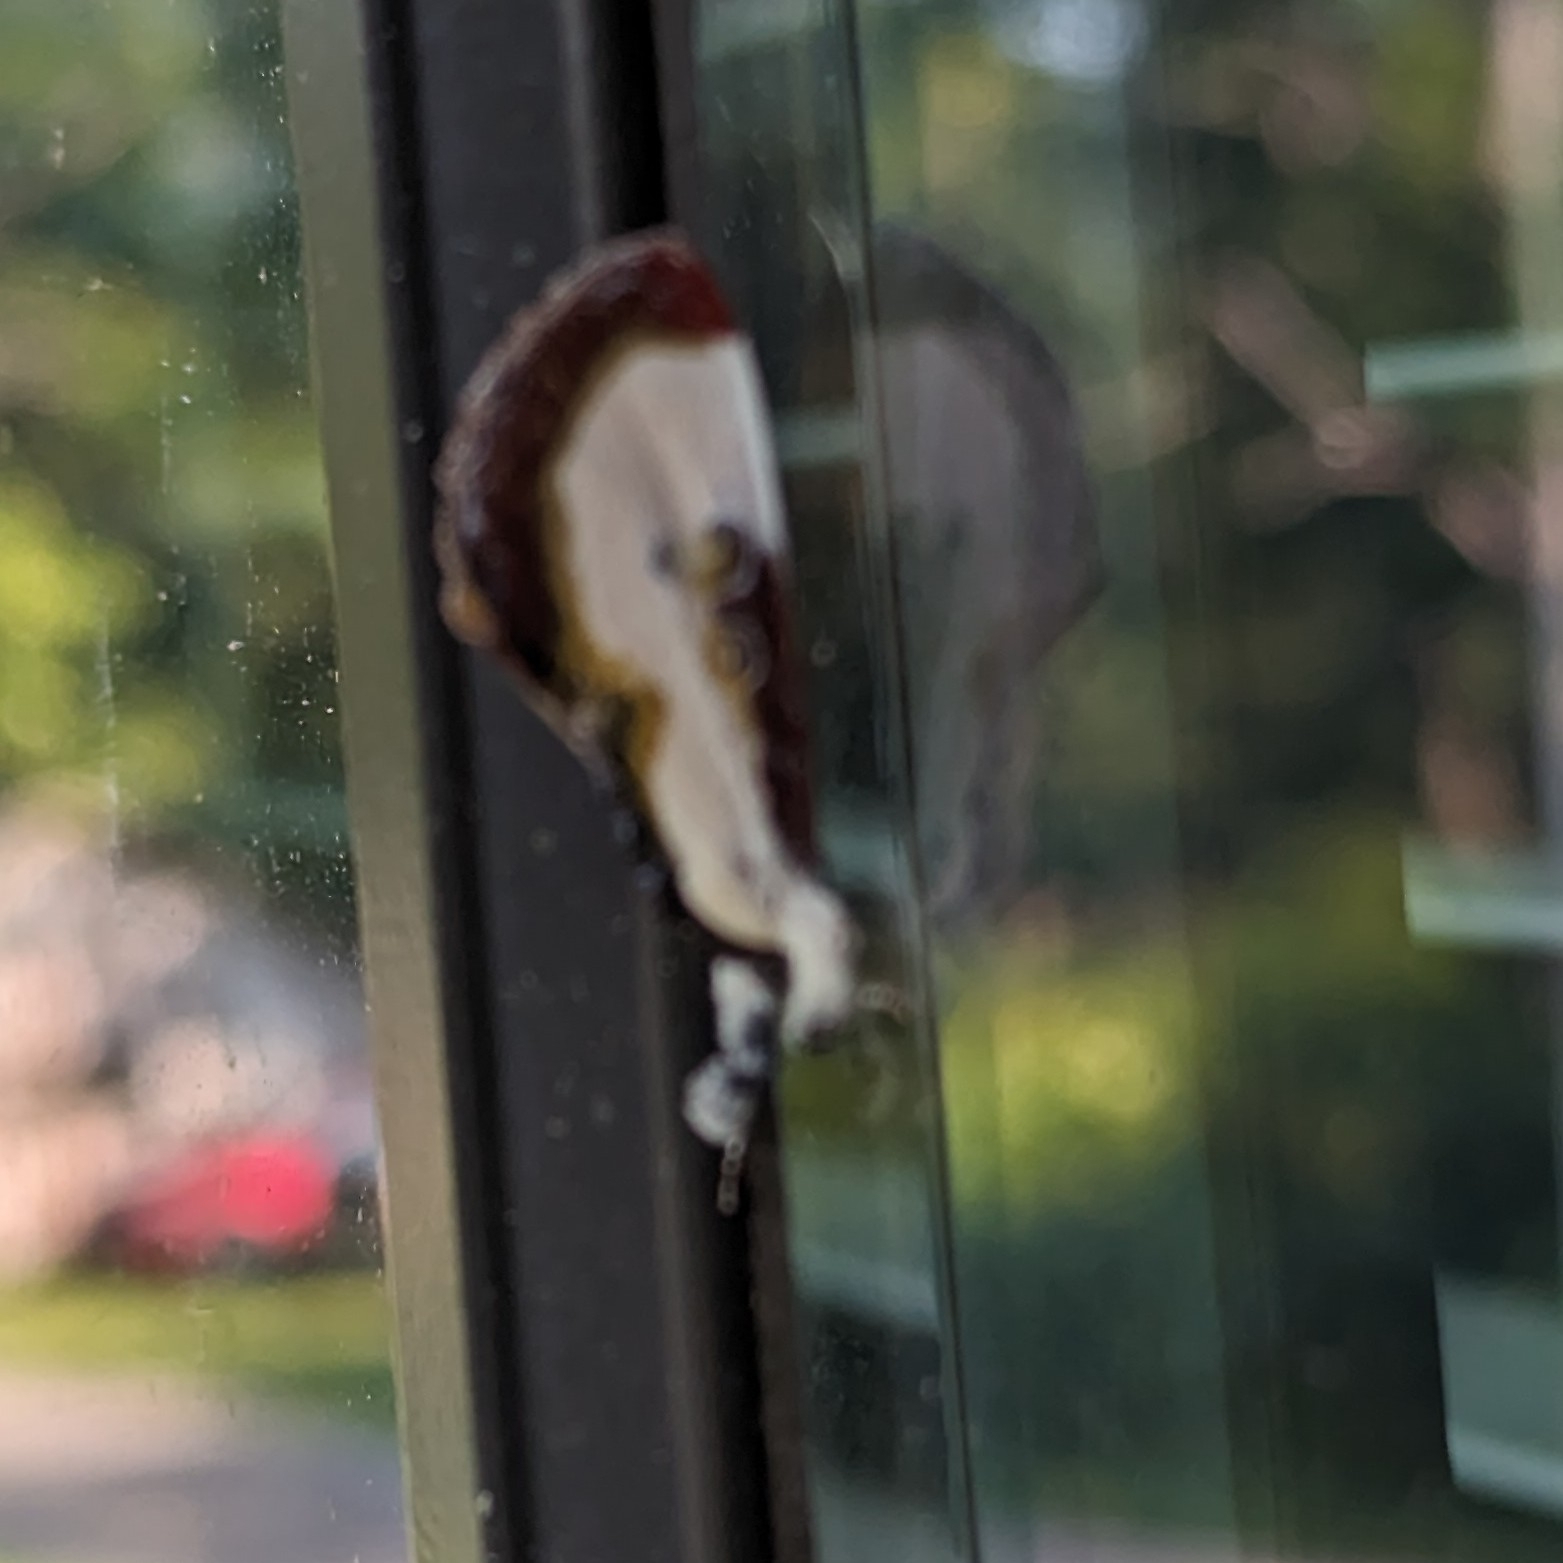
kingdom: Animalia
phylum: Arthropoda
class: Insecta
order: Lepidoptera
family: Noctuidae
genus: Eudryas
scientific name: Eudryas grata
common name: Beautiful wood-nymph
